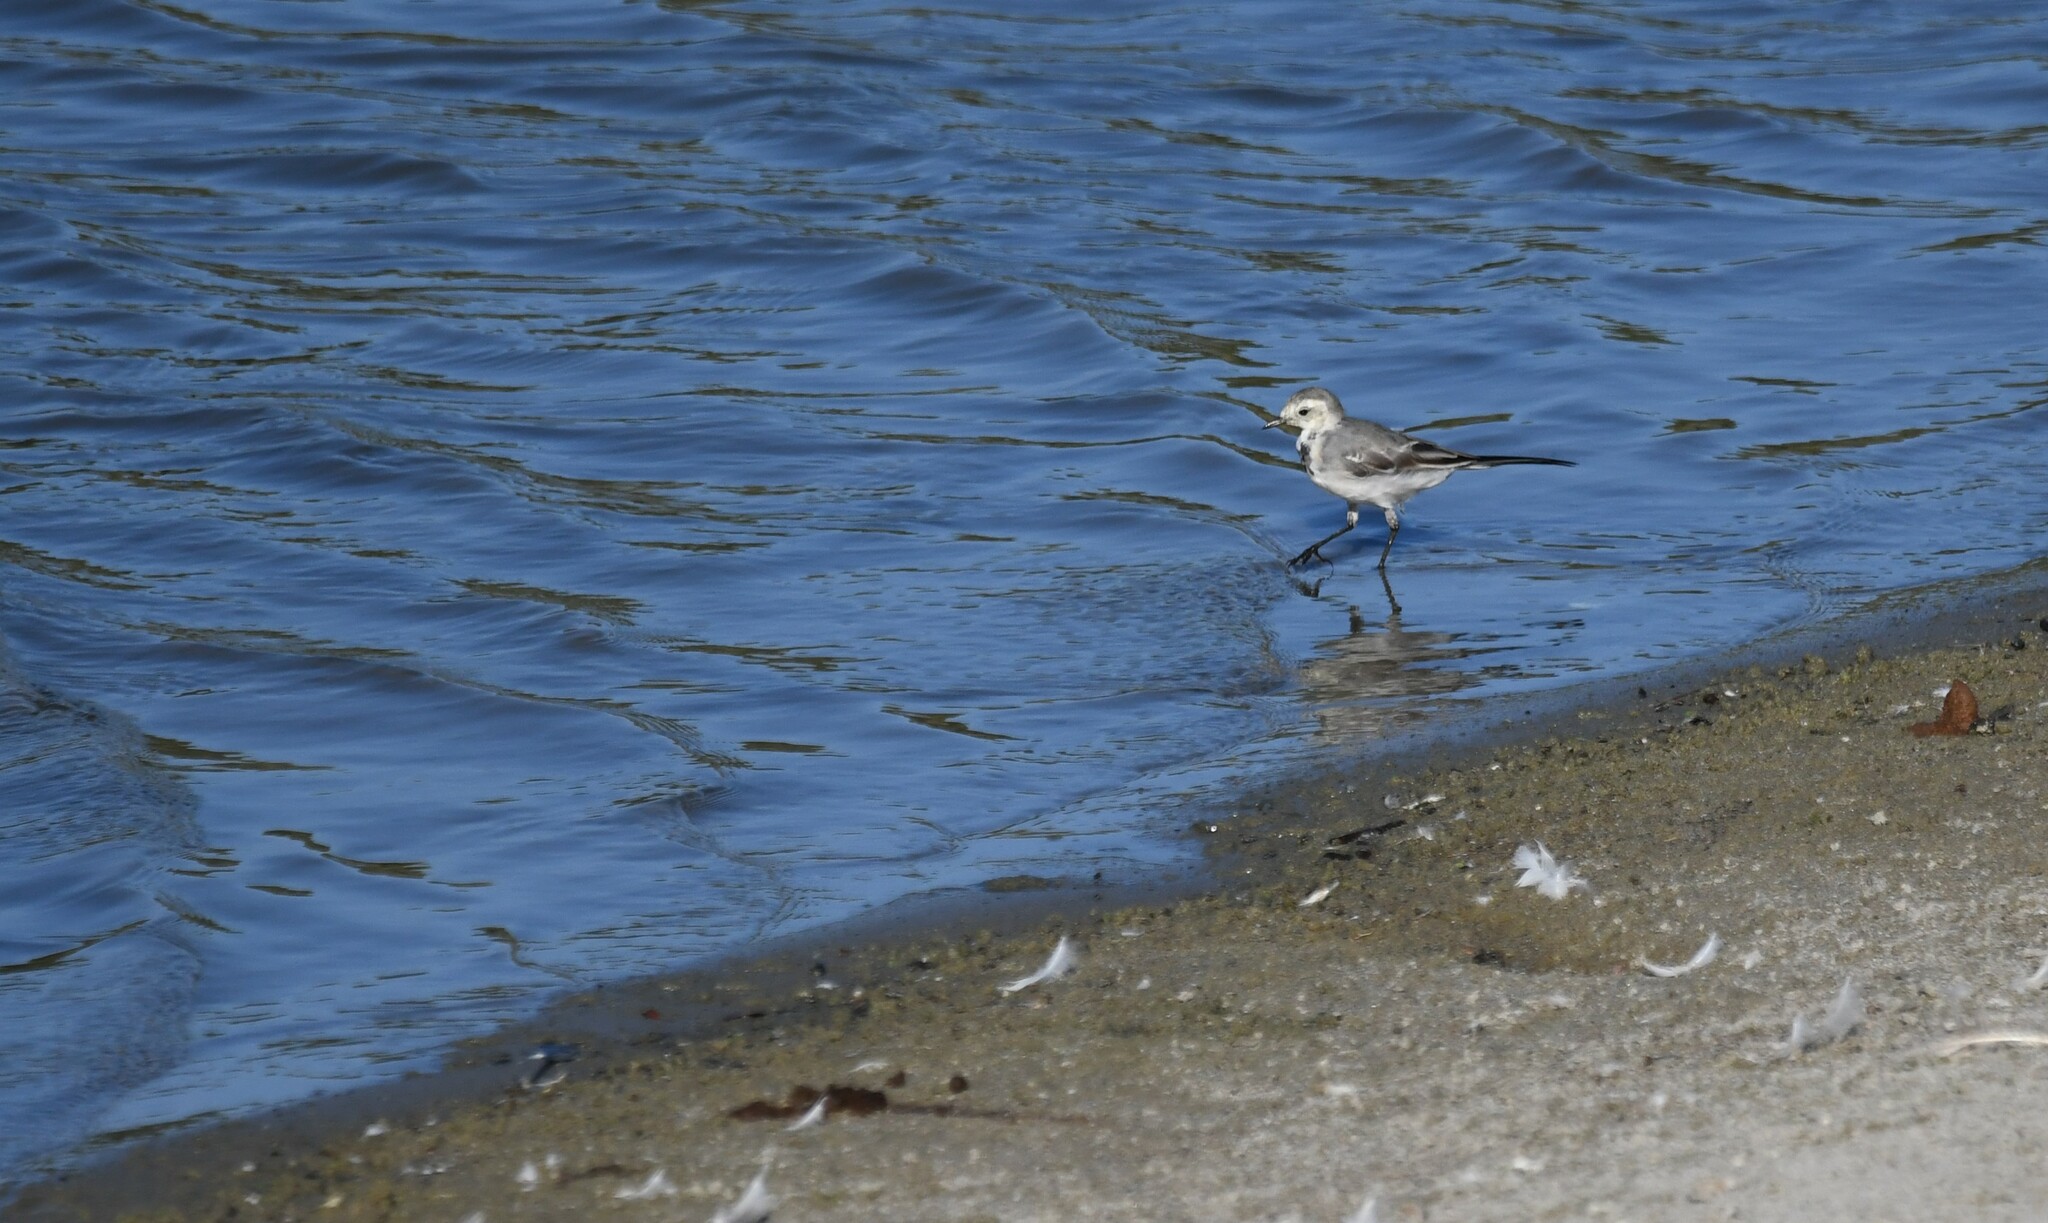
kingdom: Animalia
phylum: Chordata
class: Aves
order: Passeriformes
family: Motacillidae
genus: Motacilla
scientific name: Motacilla alba
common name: White wagtail
